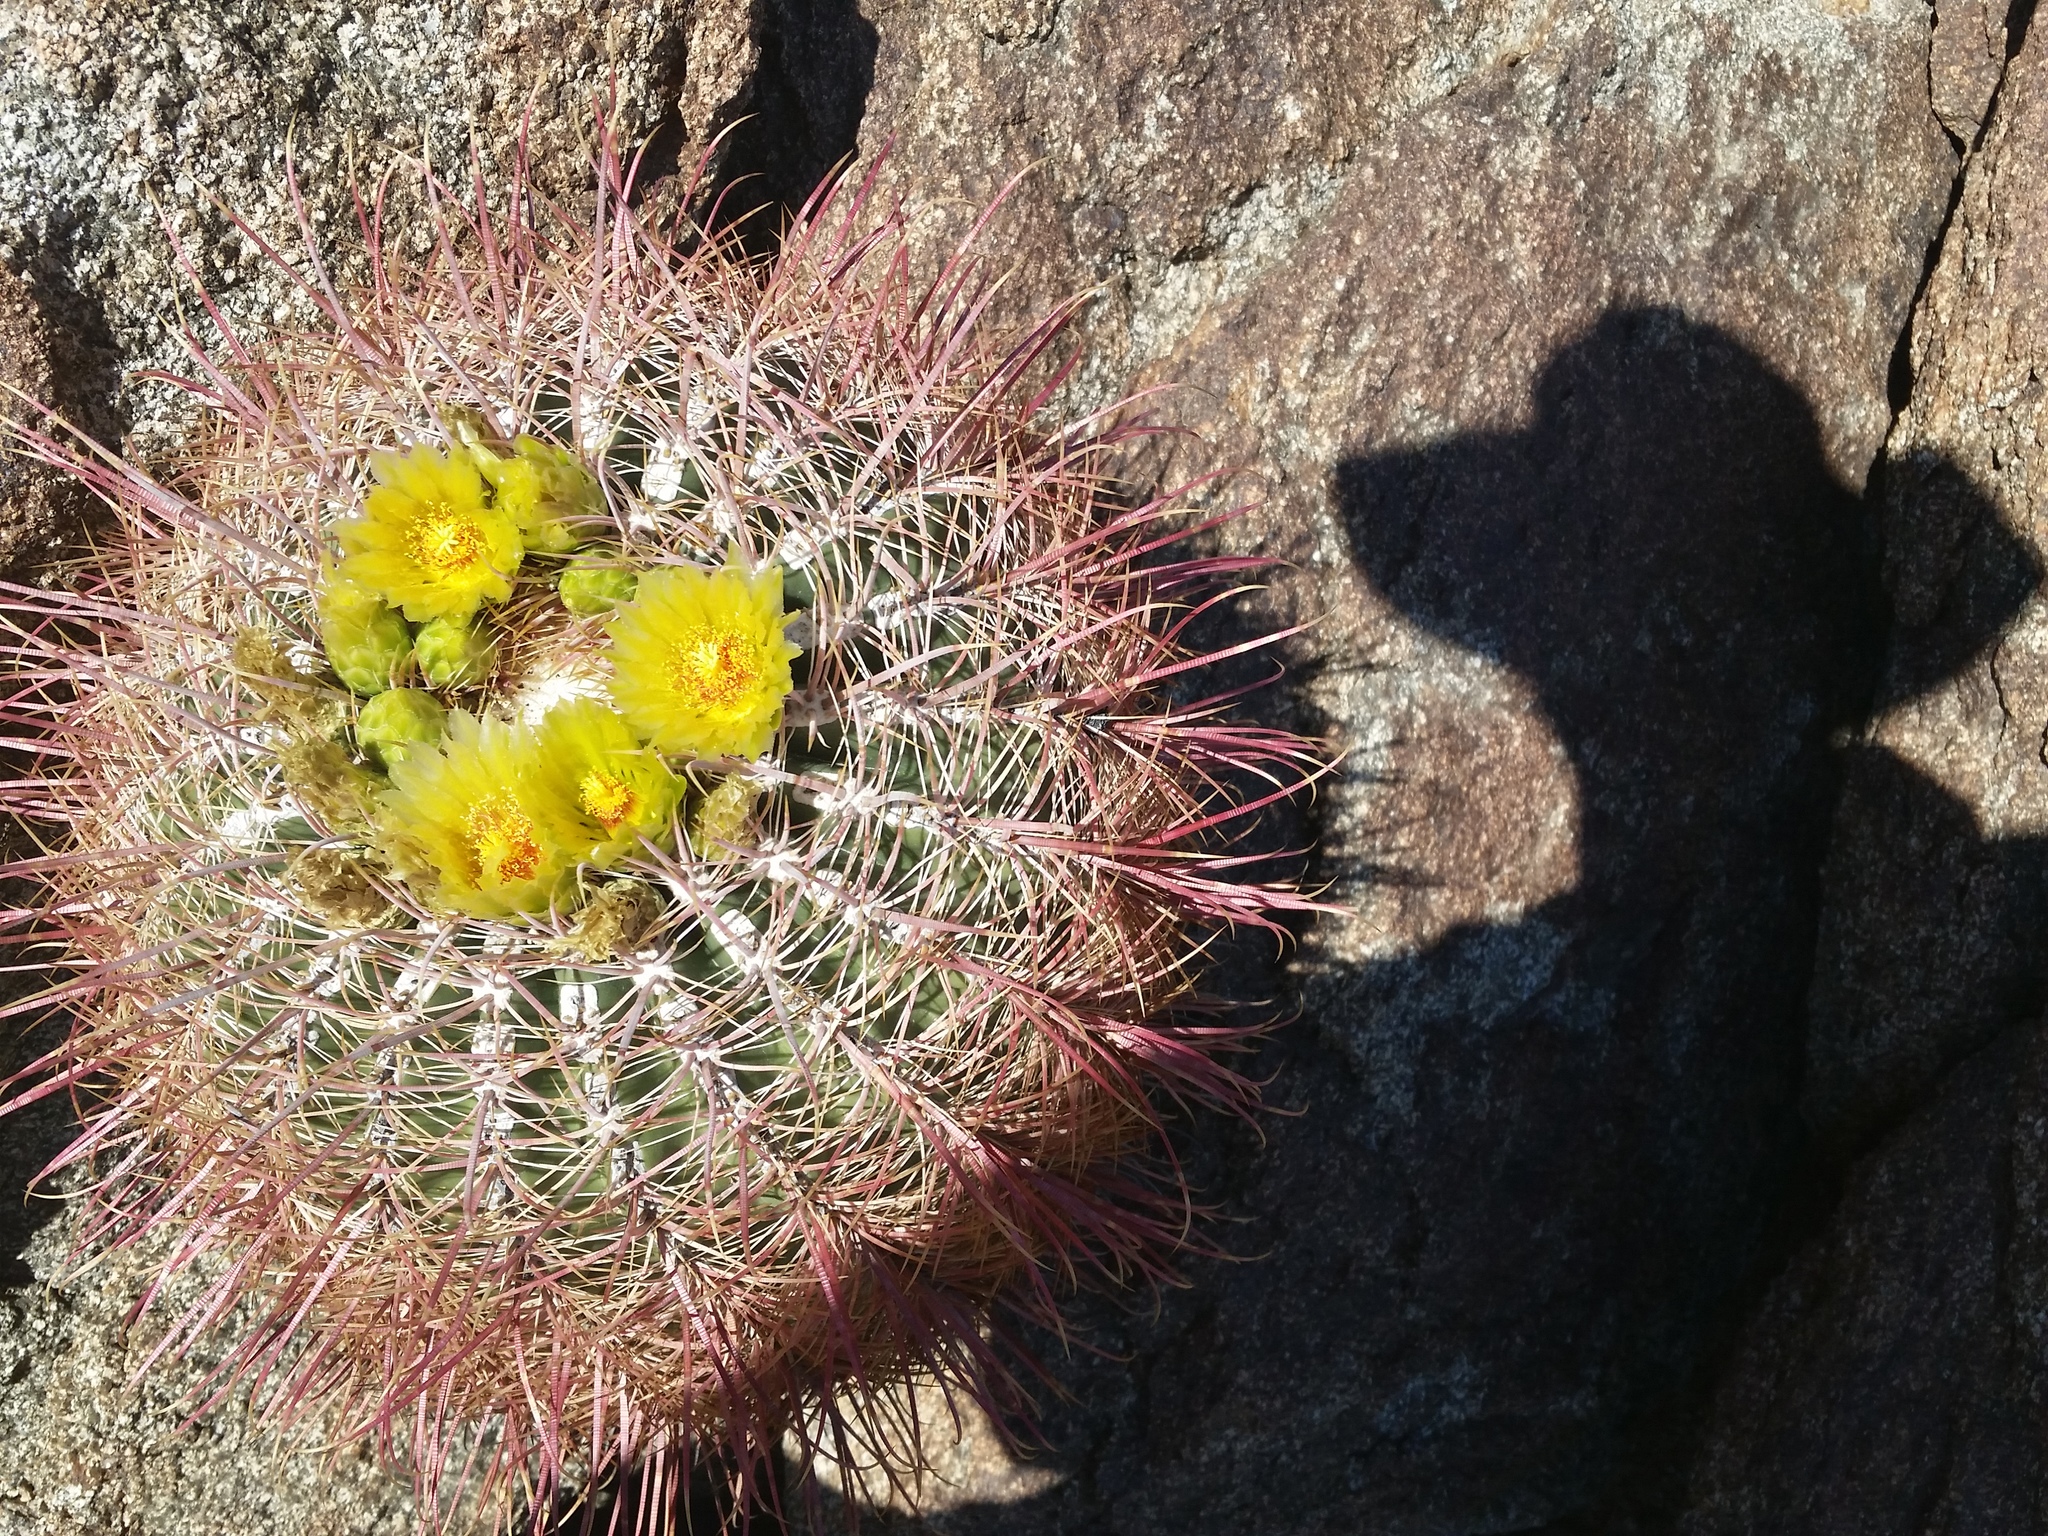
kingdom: Plantae
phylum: Tracheophyta
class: Magnoliopsida
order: Caryophyllales
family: Cactaceae
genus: Ferocactus
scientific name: Ferocactus cylindraceus
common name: California barrel cactus
